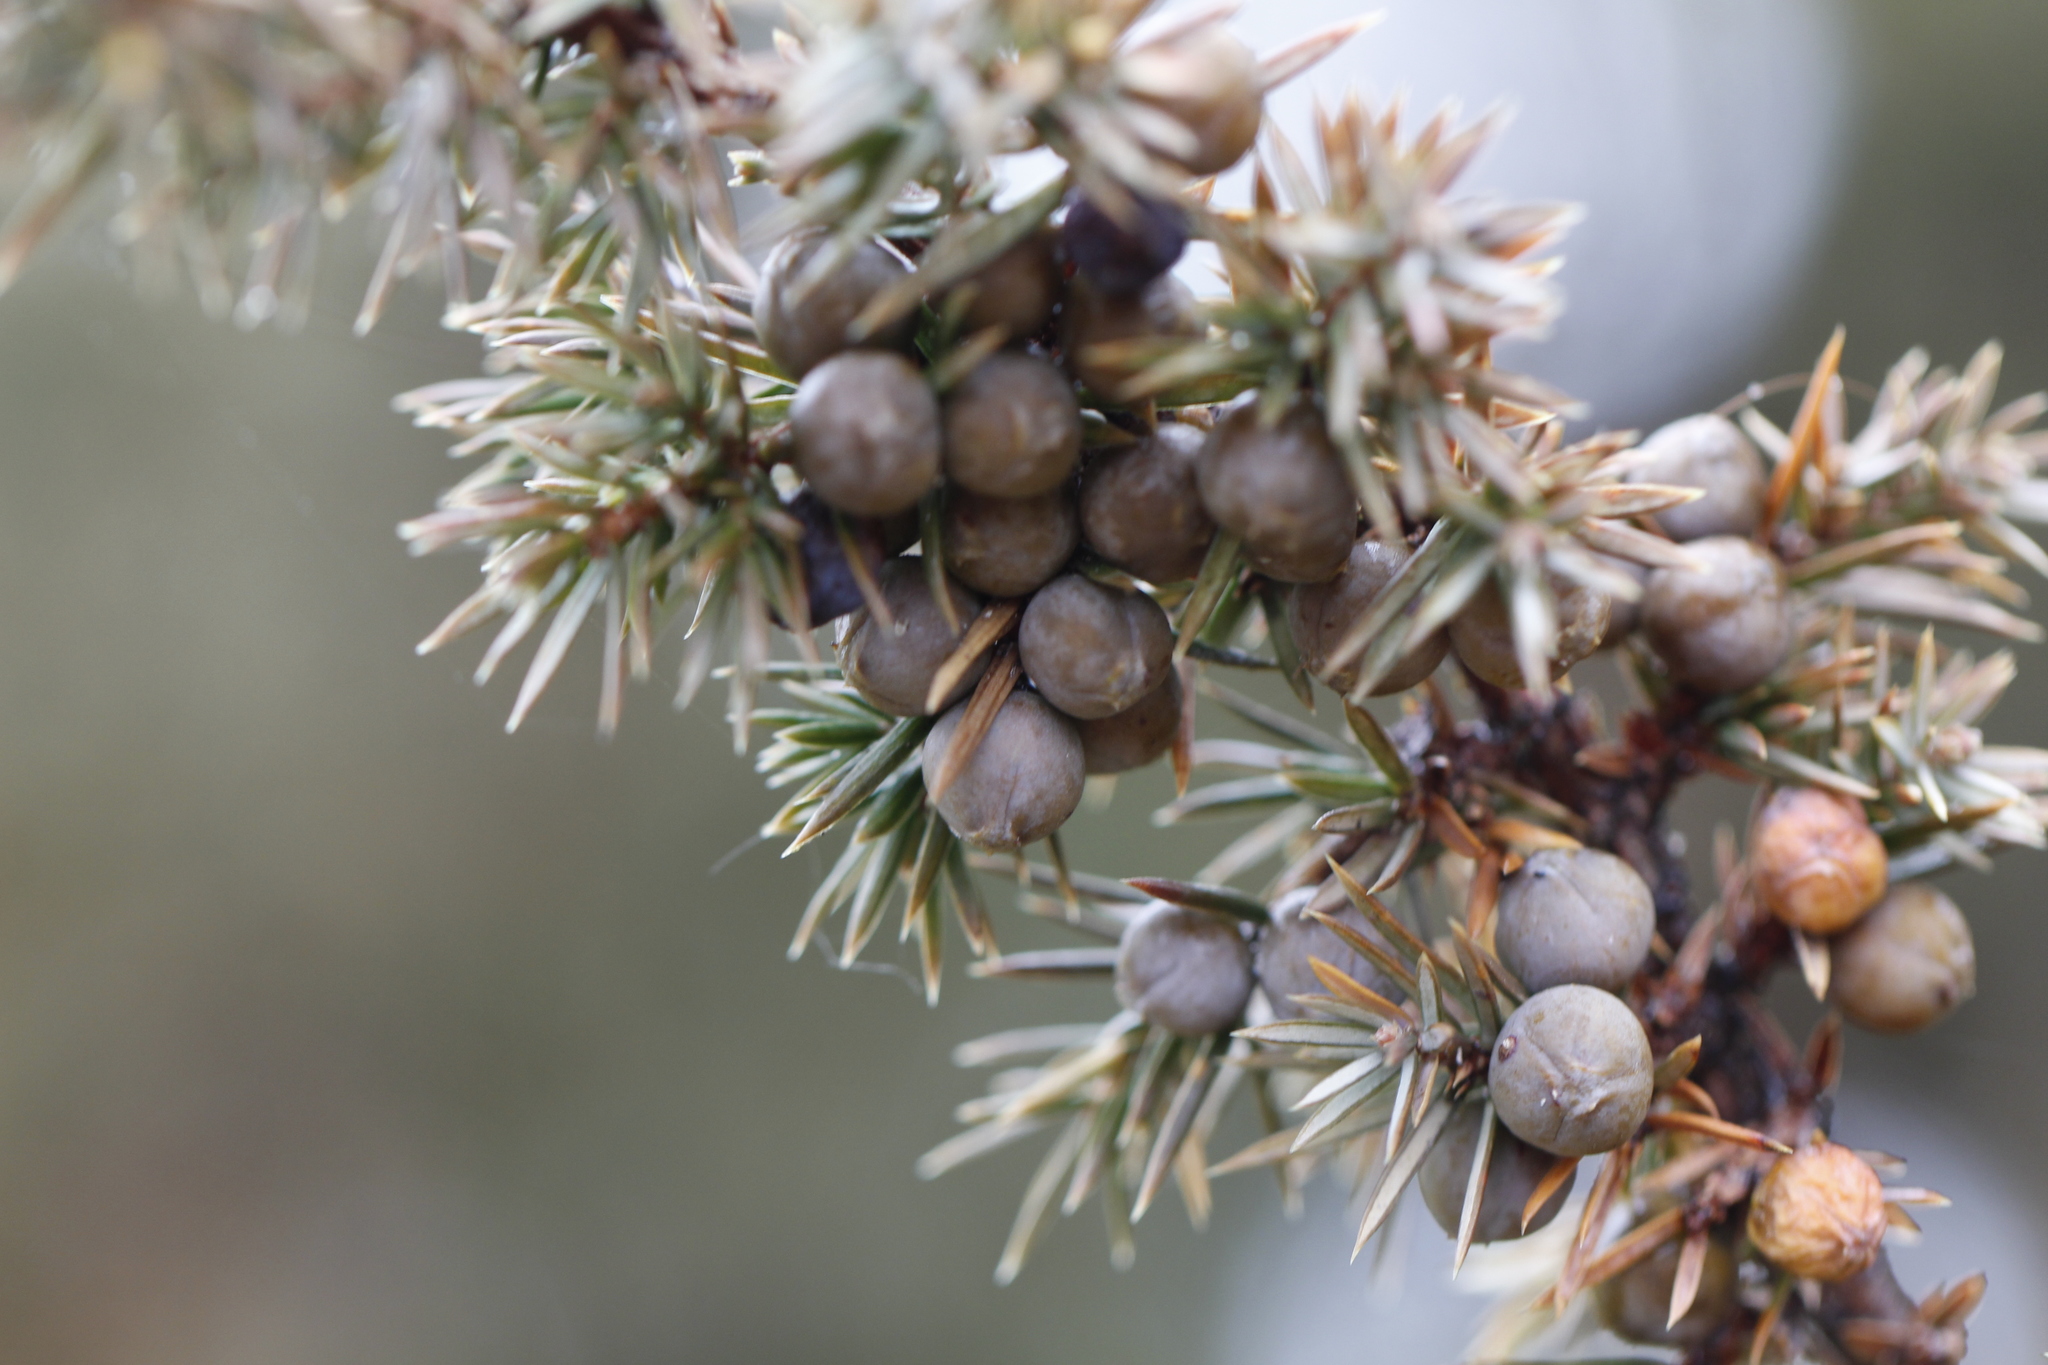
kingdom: Plantae
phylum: Tracheophyta
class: Pinopsida
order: Pinales
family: Cupressaceae
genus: Juniperus
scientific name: Juniperus communis
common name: Common juniper
